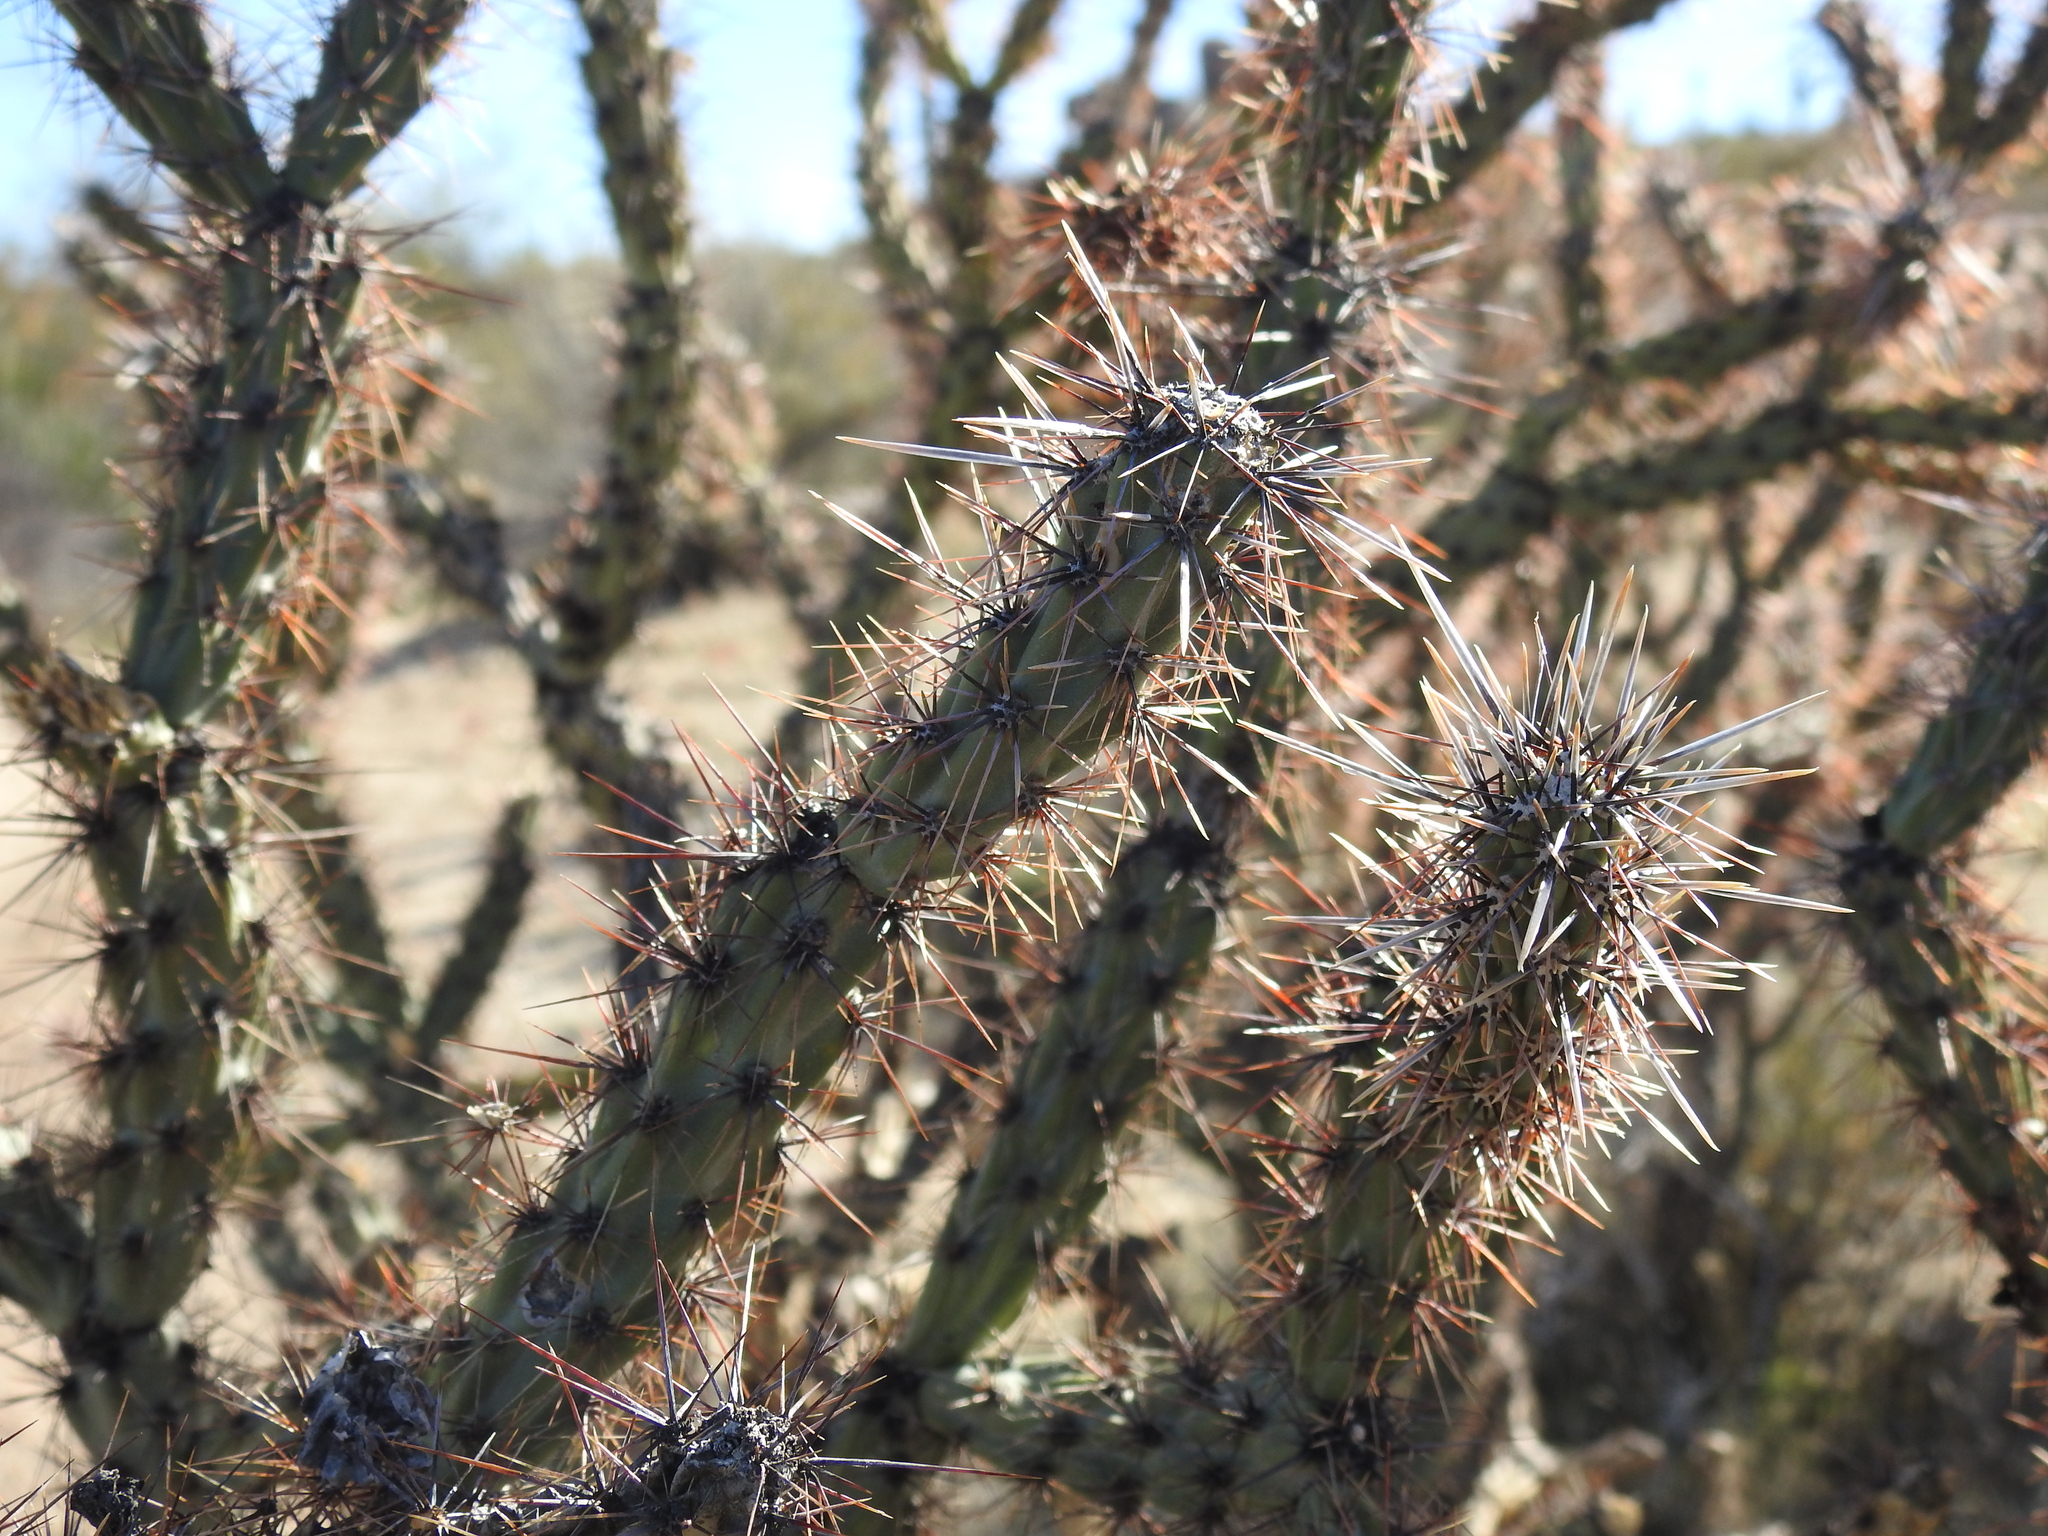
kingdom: Plantae
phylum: Tracheophyta
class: Magnoliopsida
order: Caryophyllales
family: Cactaceae
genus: Cylindropuntia
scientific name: Cylindropuntia acanthocarpa
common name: Buckhorn cholla
